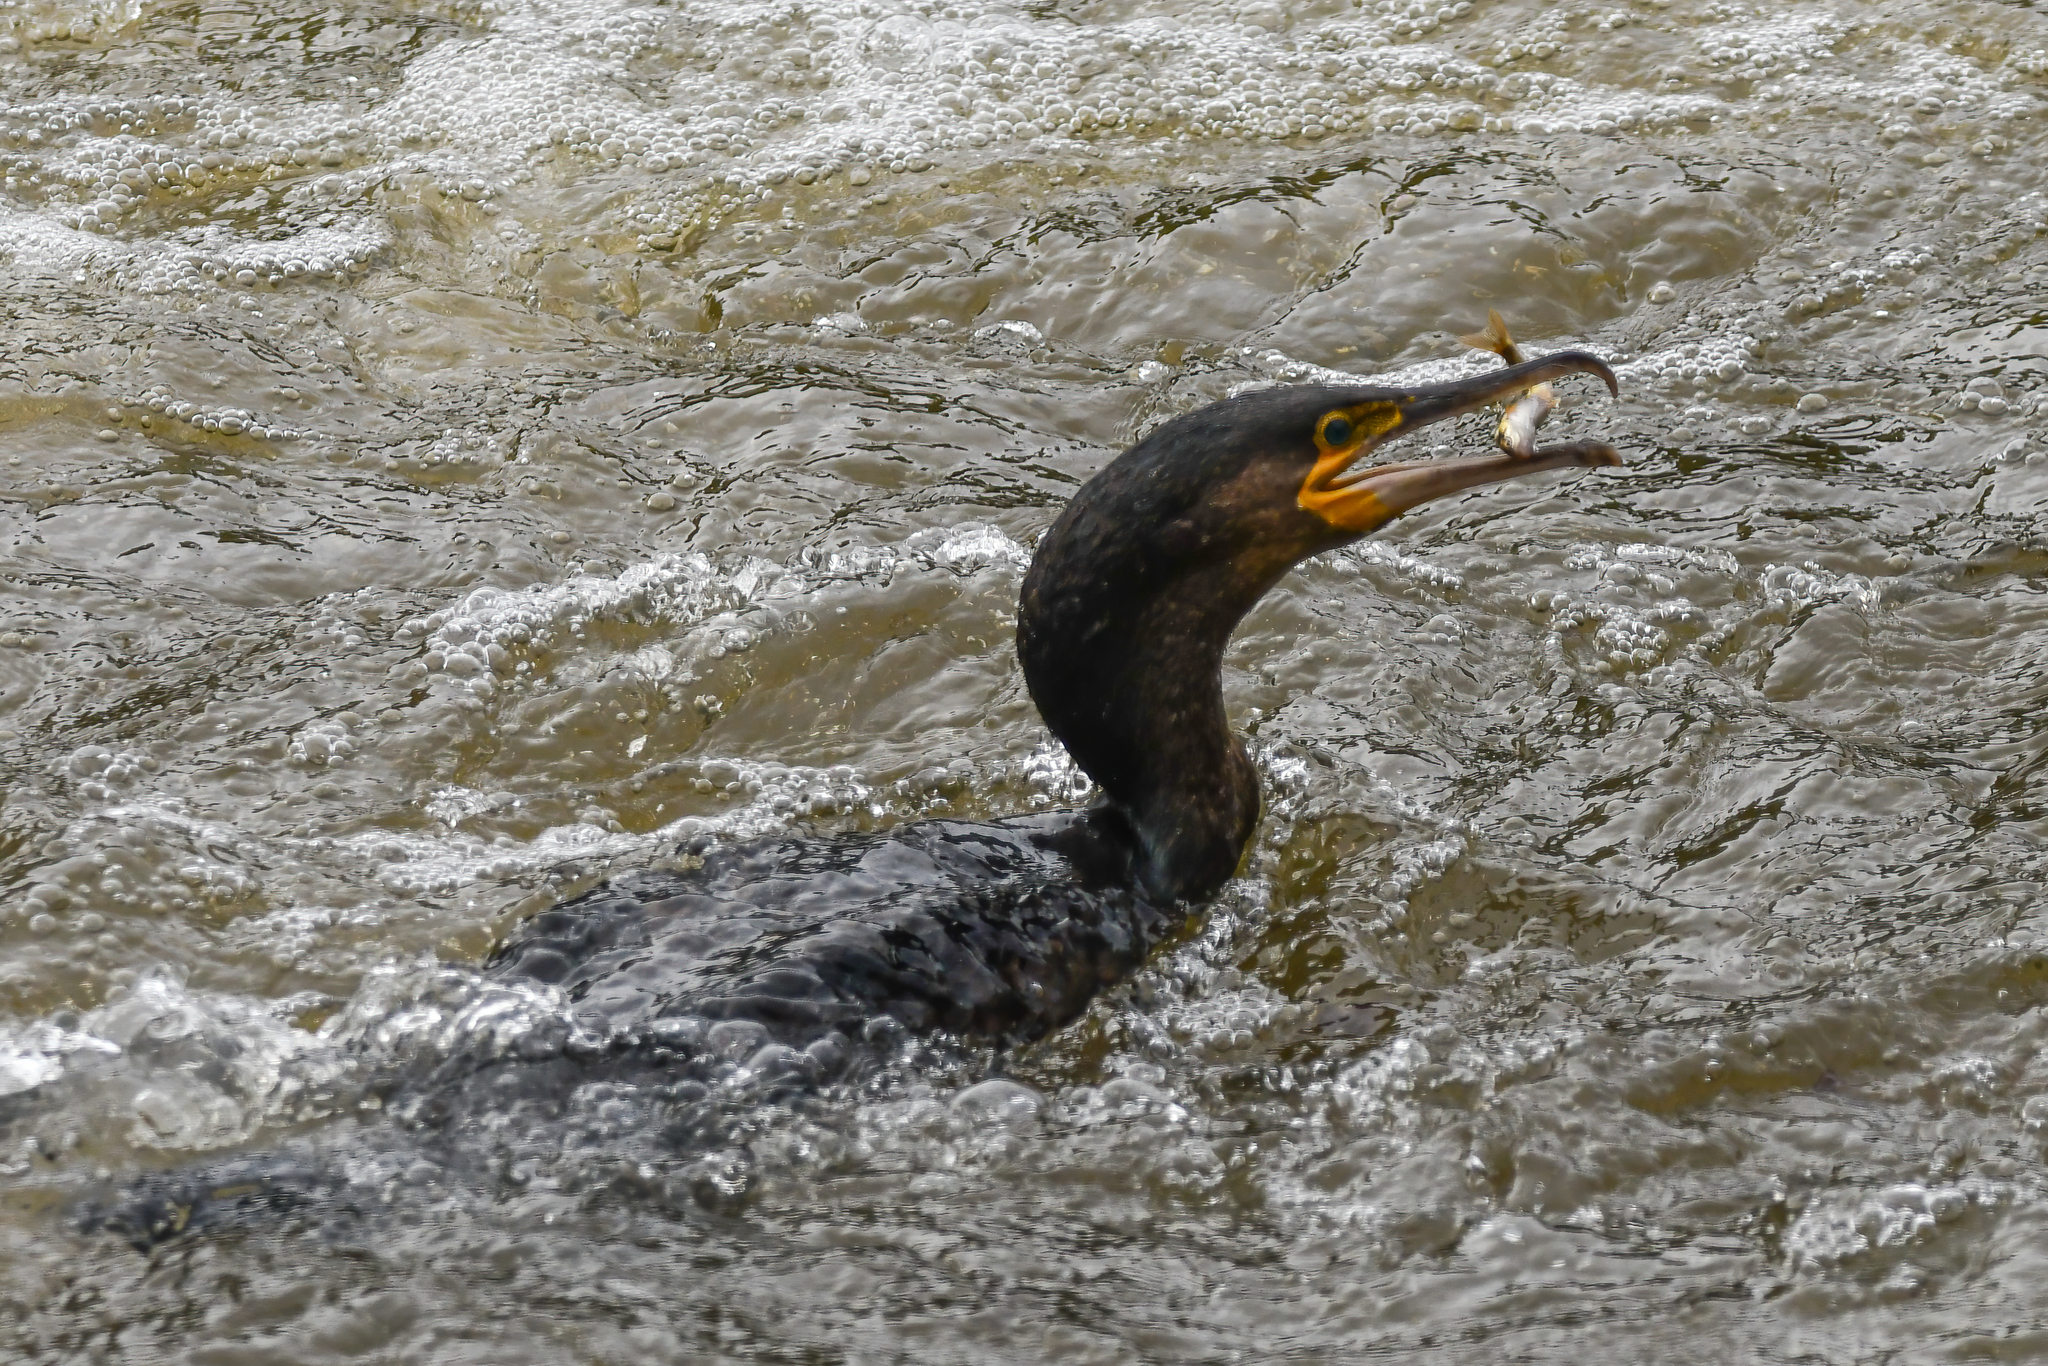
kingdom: Animalia
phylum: Chordata
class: Aves
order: Suliformes
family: Phalacrocoracidae
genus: Phalacrocorax
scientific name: Phalacrocorax carbo
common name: Great cormorant
